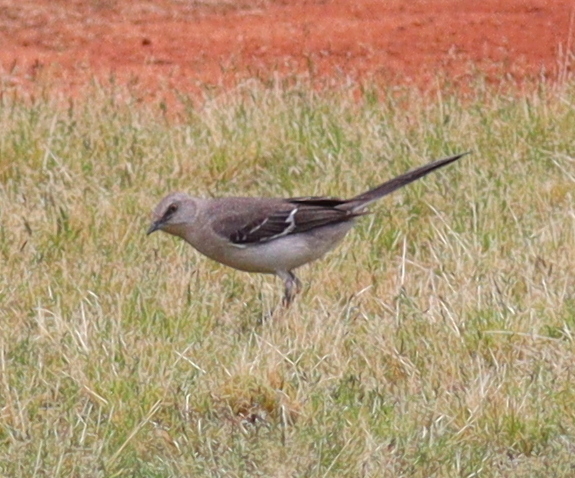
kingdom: Animalia
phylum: Chordata
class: Aves
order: Passeriformes
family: Mimidae
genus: Mimus
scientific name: Mimus polyglottos
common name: Northern mockingbird
